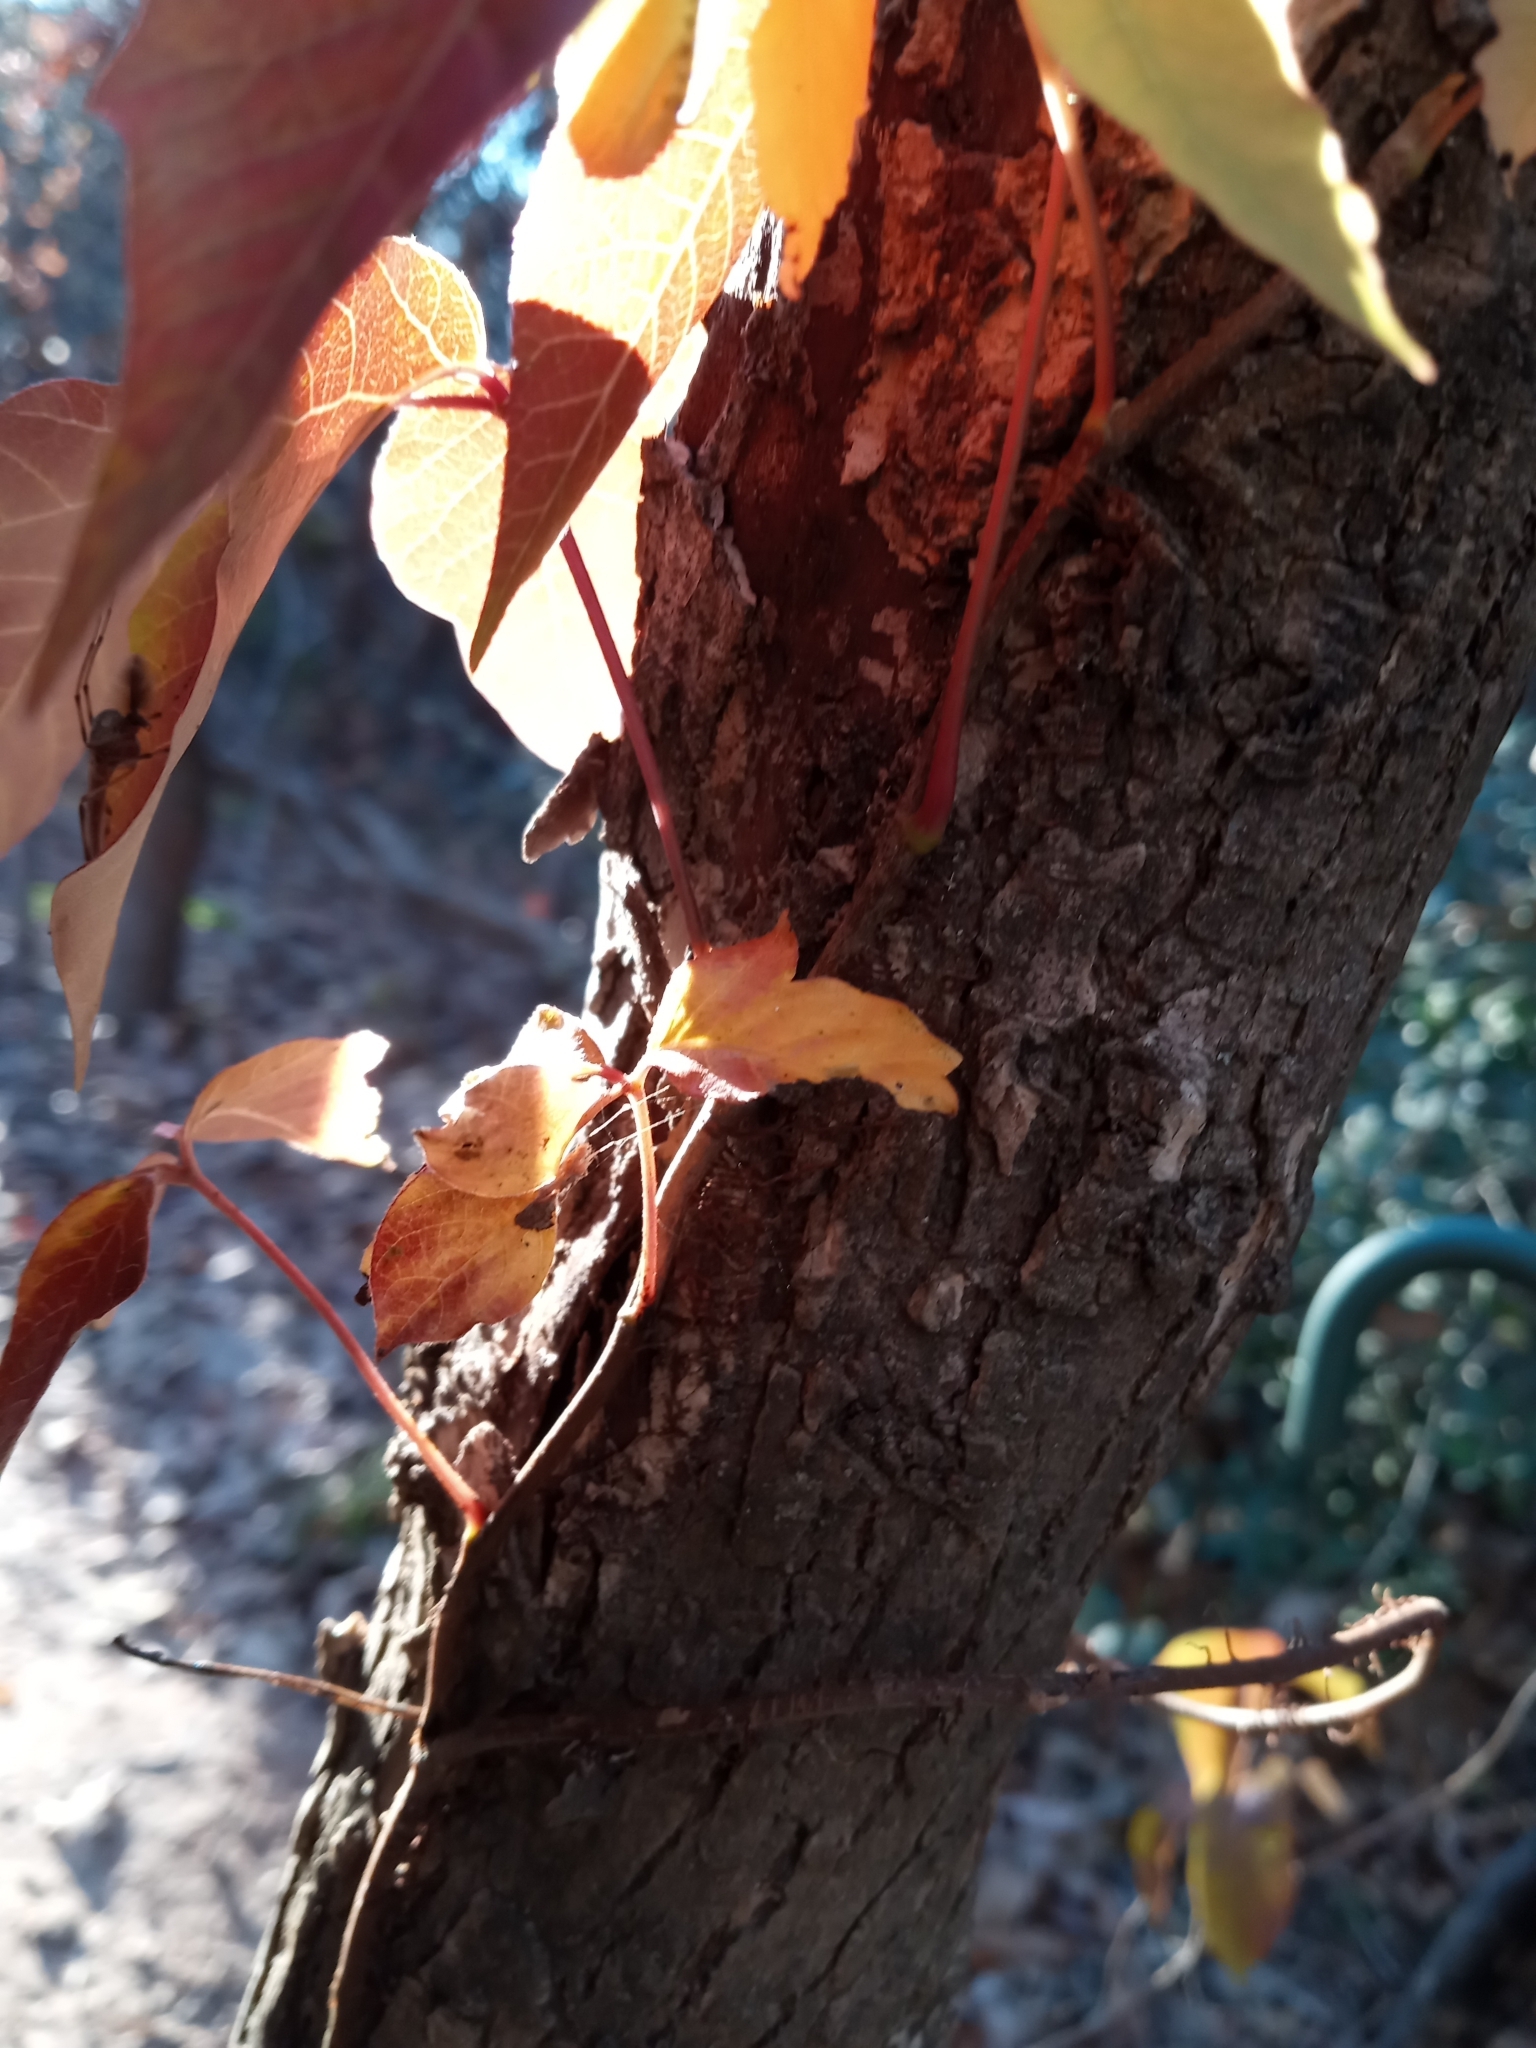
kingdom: Plantae
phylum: Tracheophyta
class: Magnoliopsida
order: Sapindales
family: Anacardiaceae
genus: Toxicodendron
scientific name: Toxicodendron radicans
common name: Poison ivy
